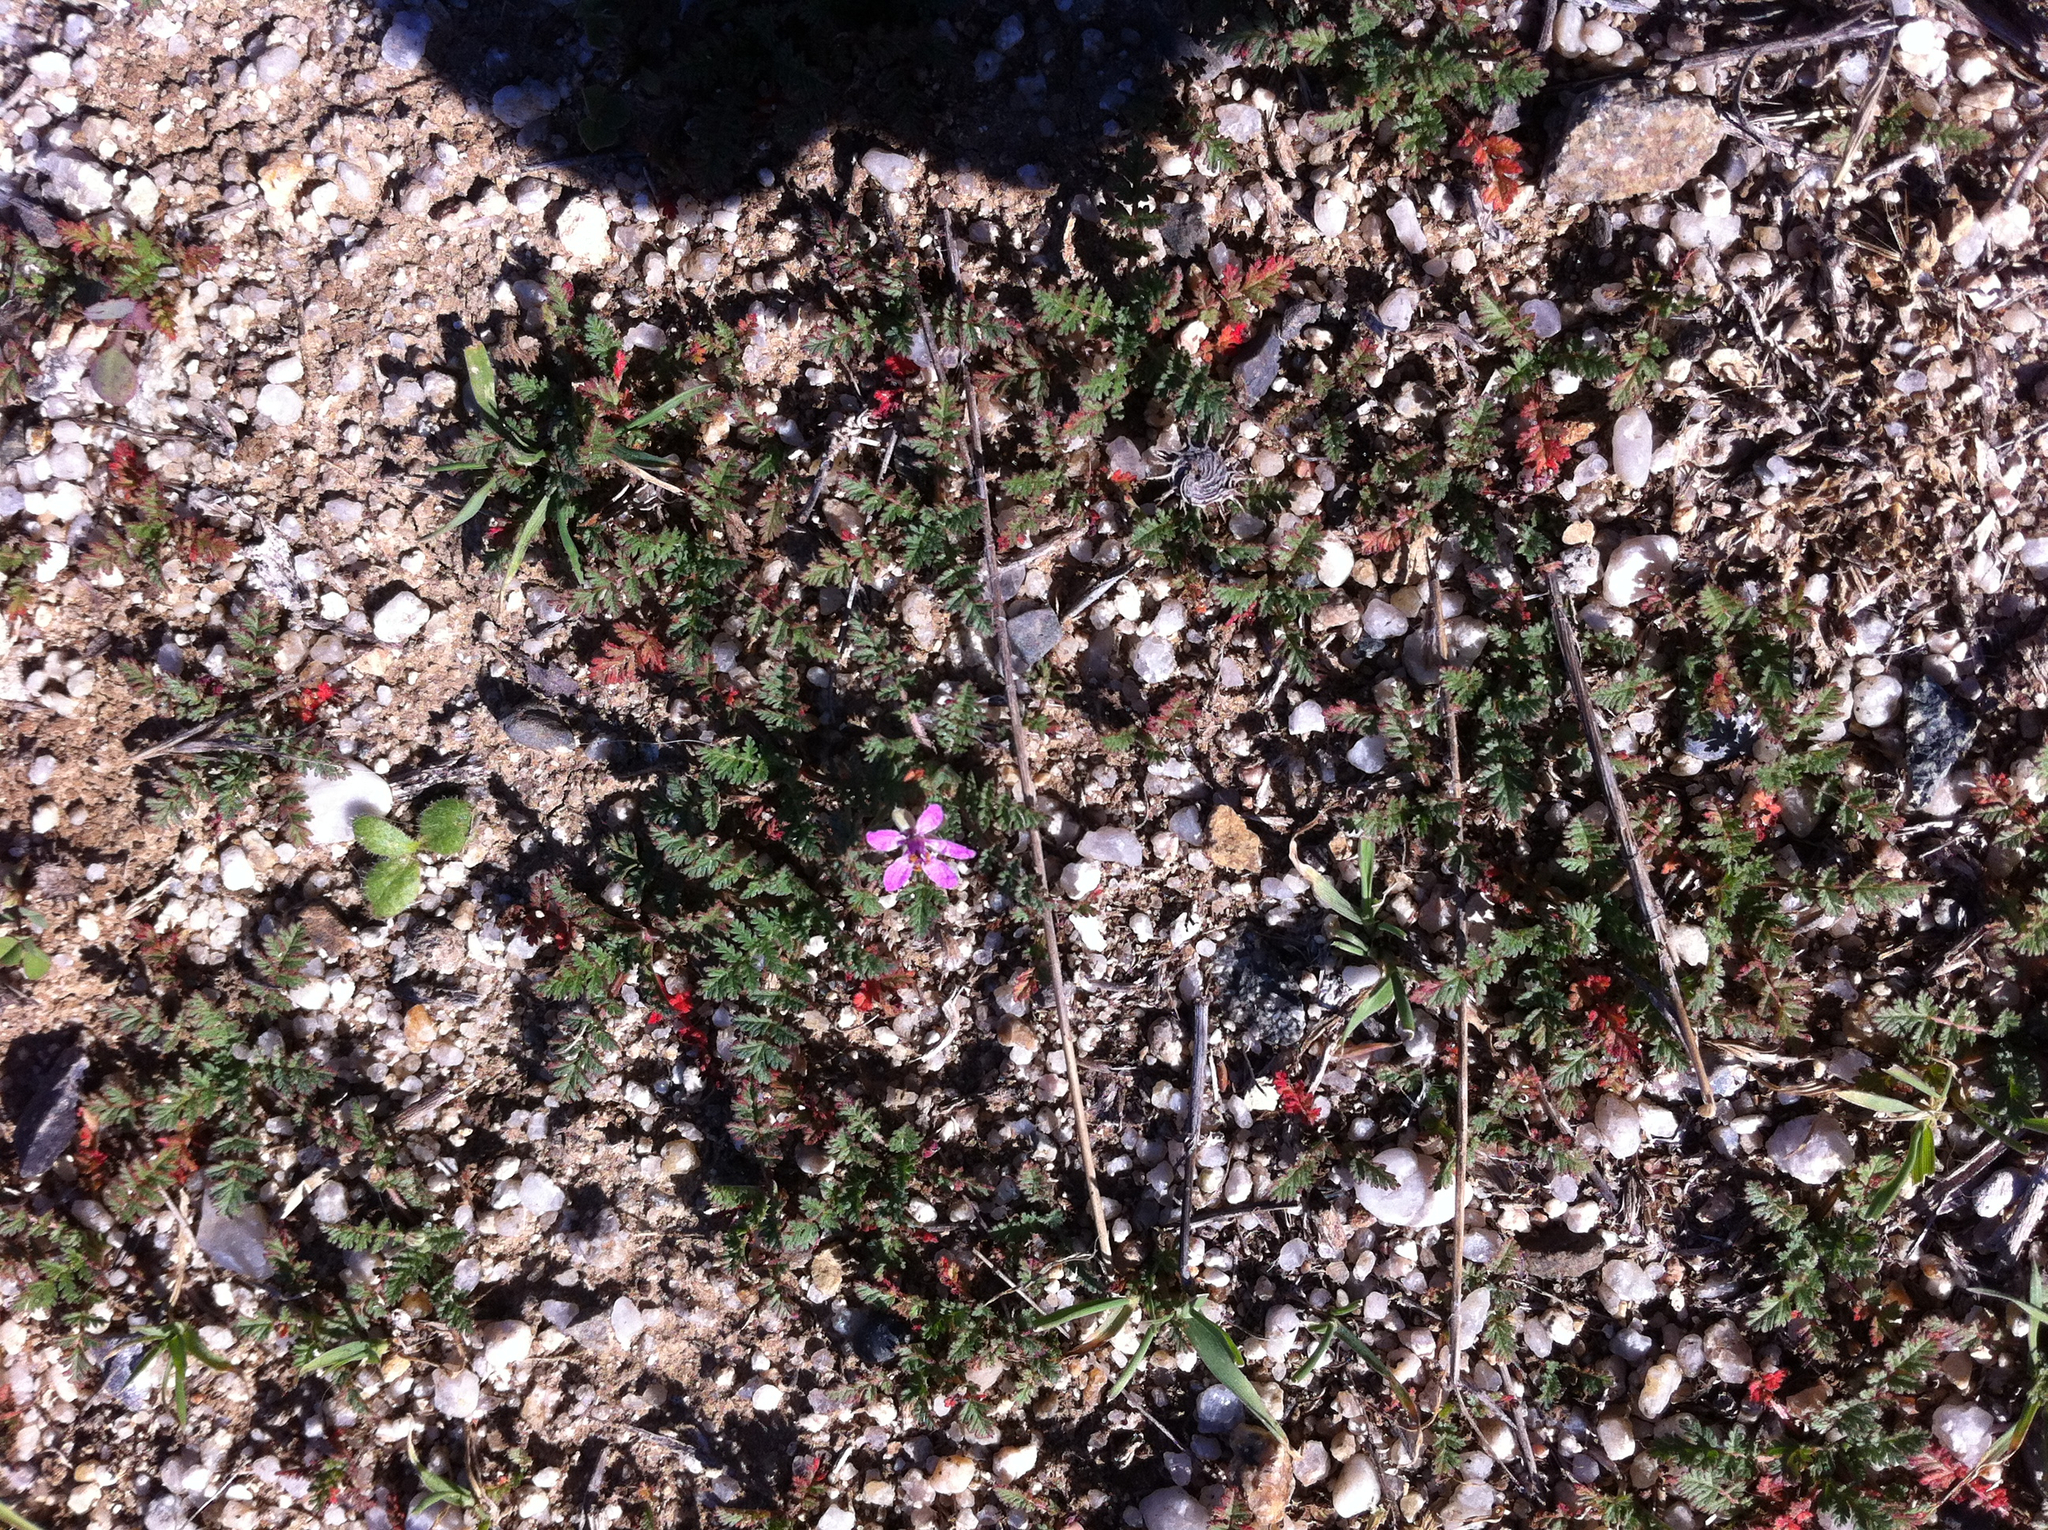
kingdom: Plantae
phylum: Tracheophyta
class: Magnoliopsida
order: Geraniales
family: Geraniaceae
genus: Erodium
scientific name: Erodium cicutarium
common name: Common stork's-bill
